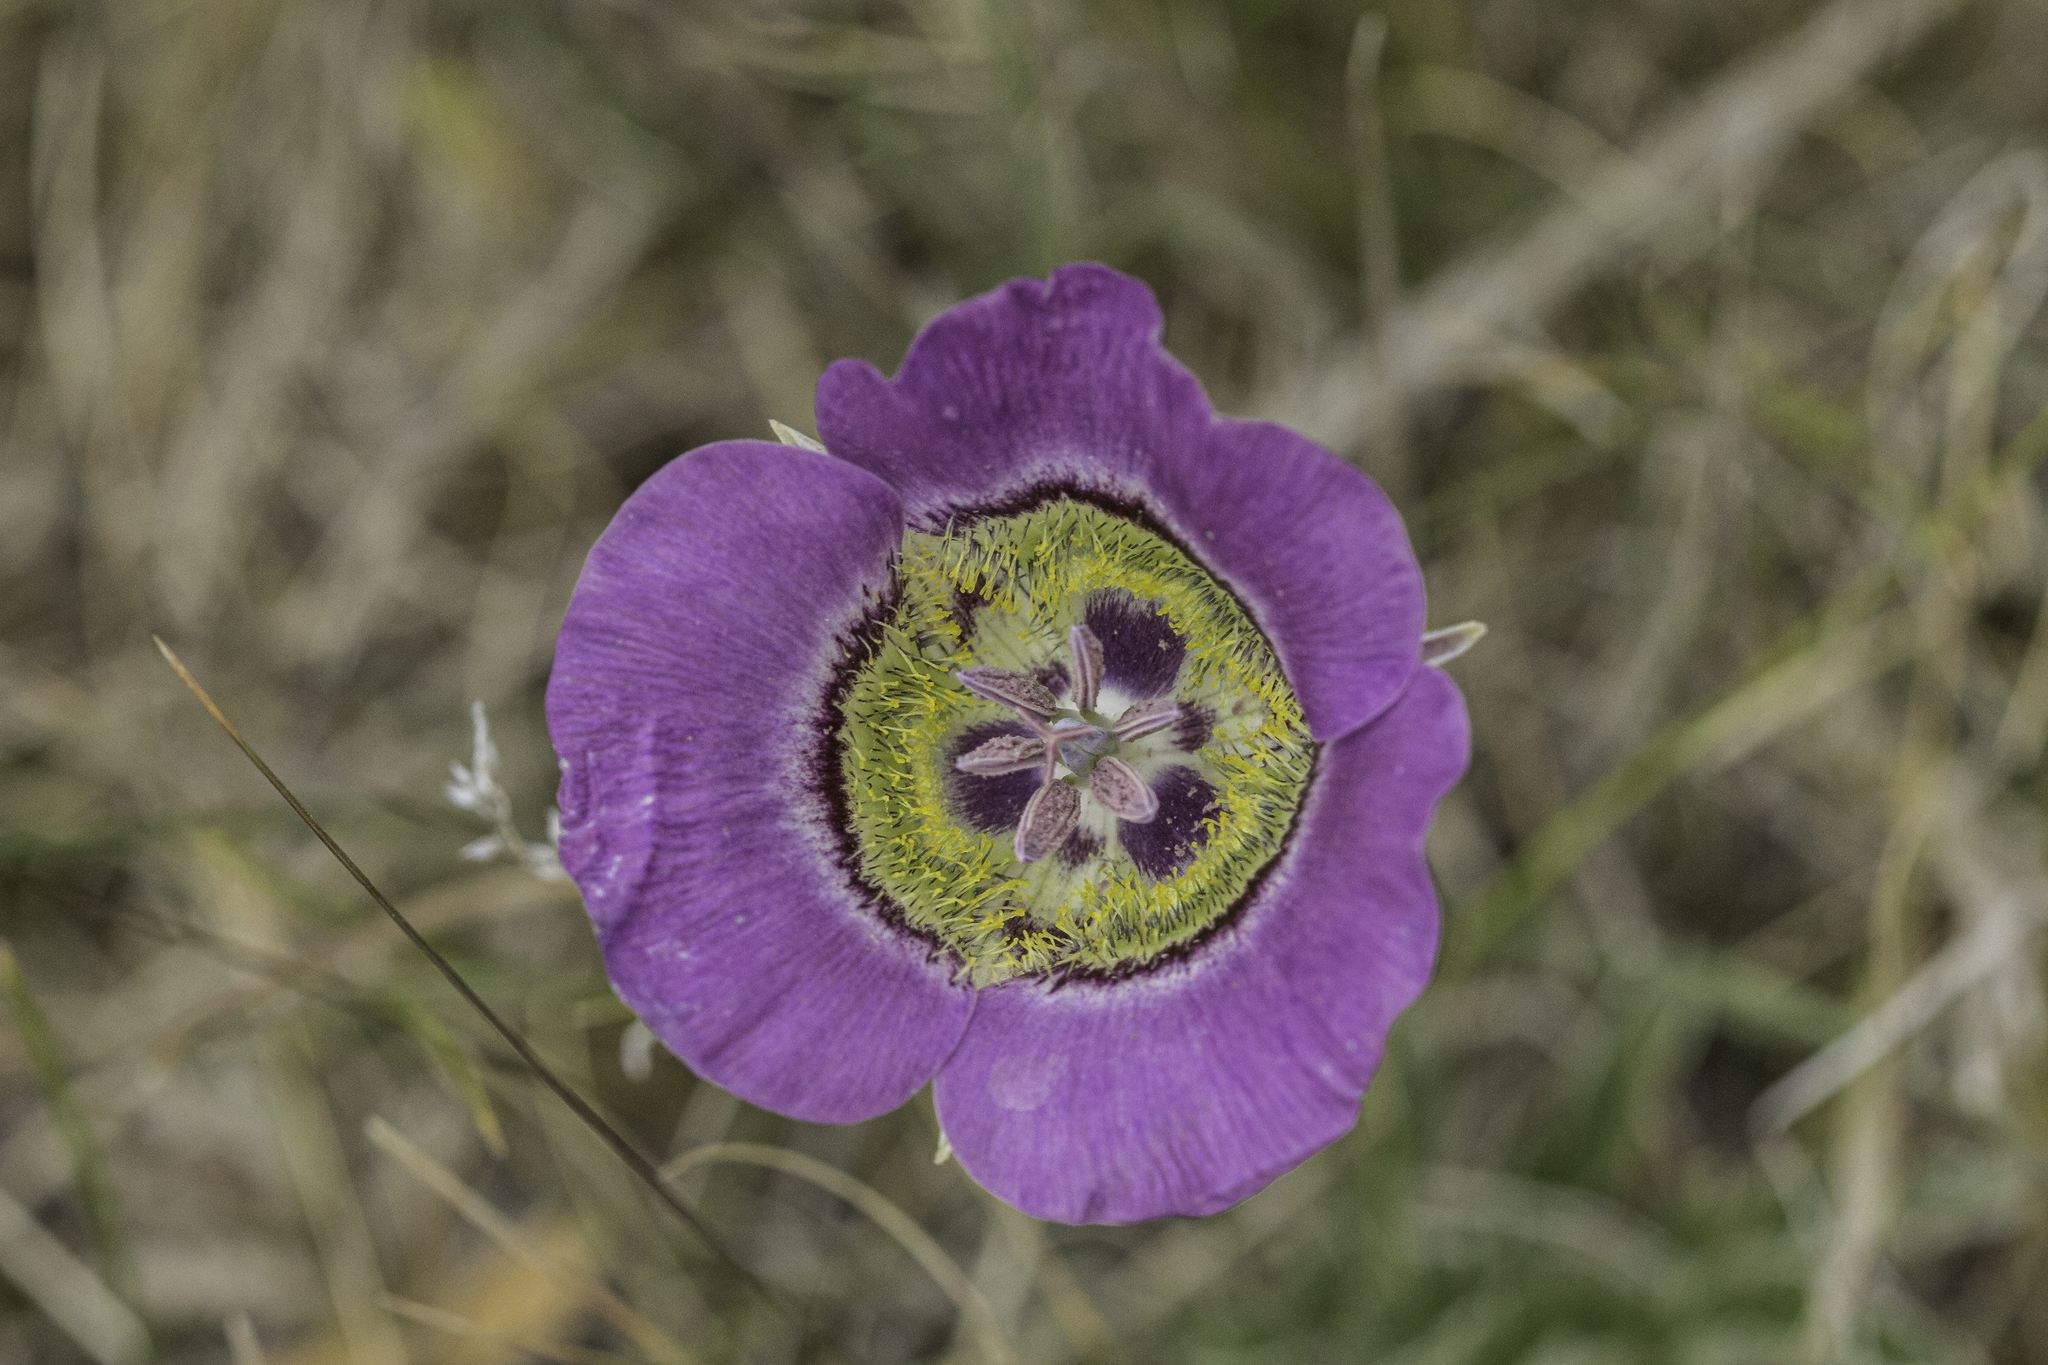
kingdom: Plantae
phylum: Tracheophyta
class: Liliopsida
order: Liliales
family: Liliaceae
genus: Calochortus
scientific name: Calochortus gunnisonii
